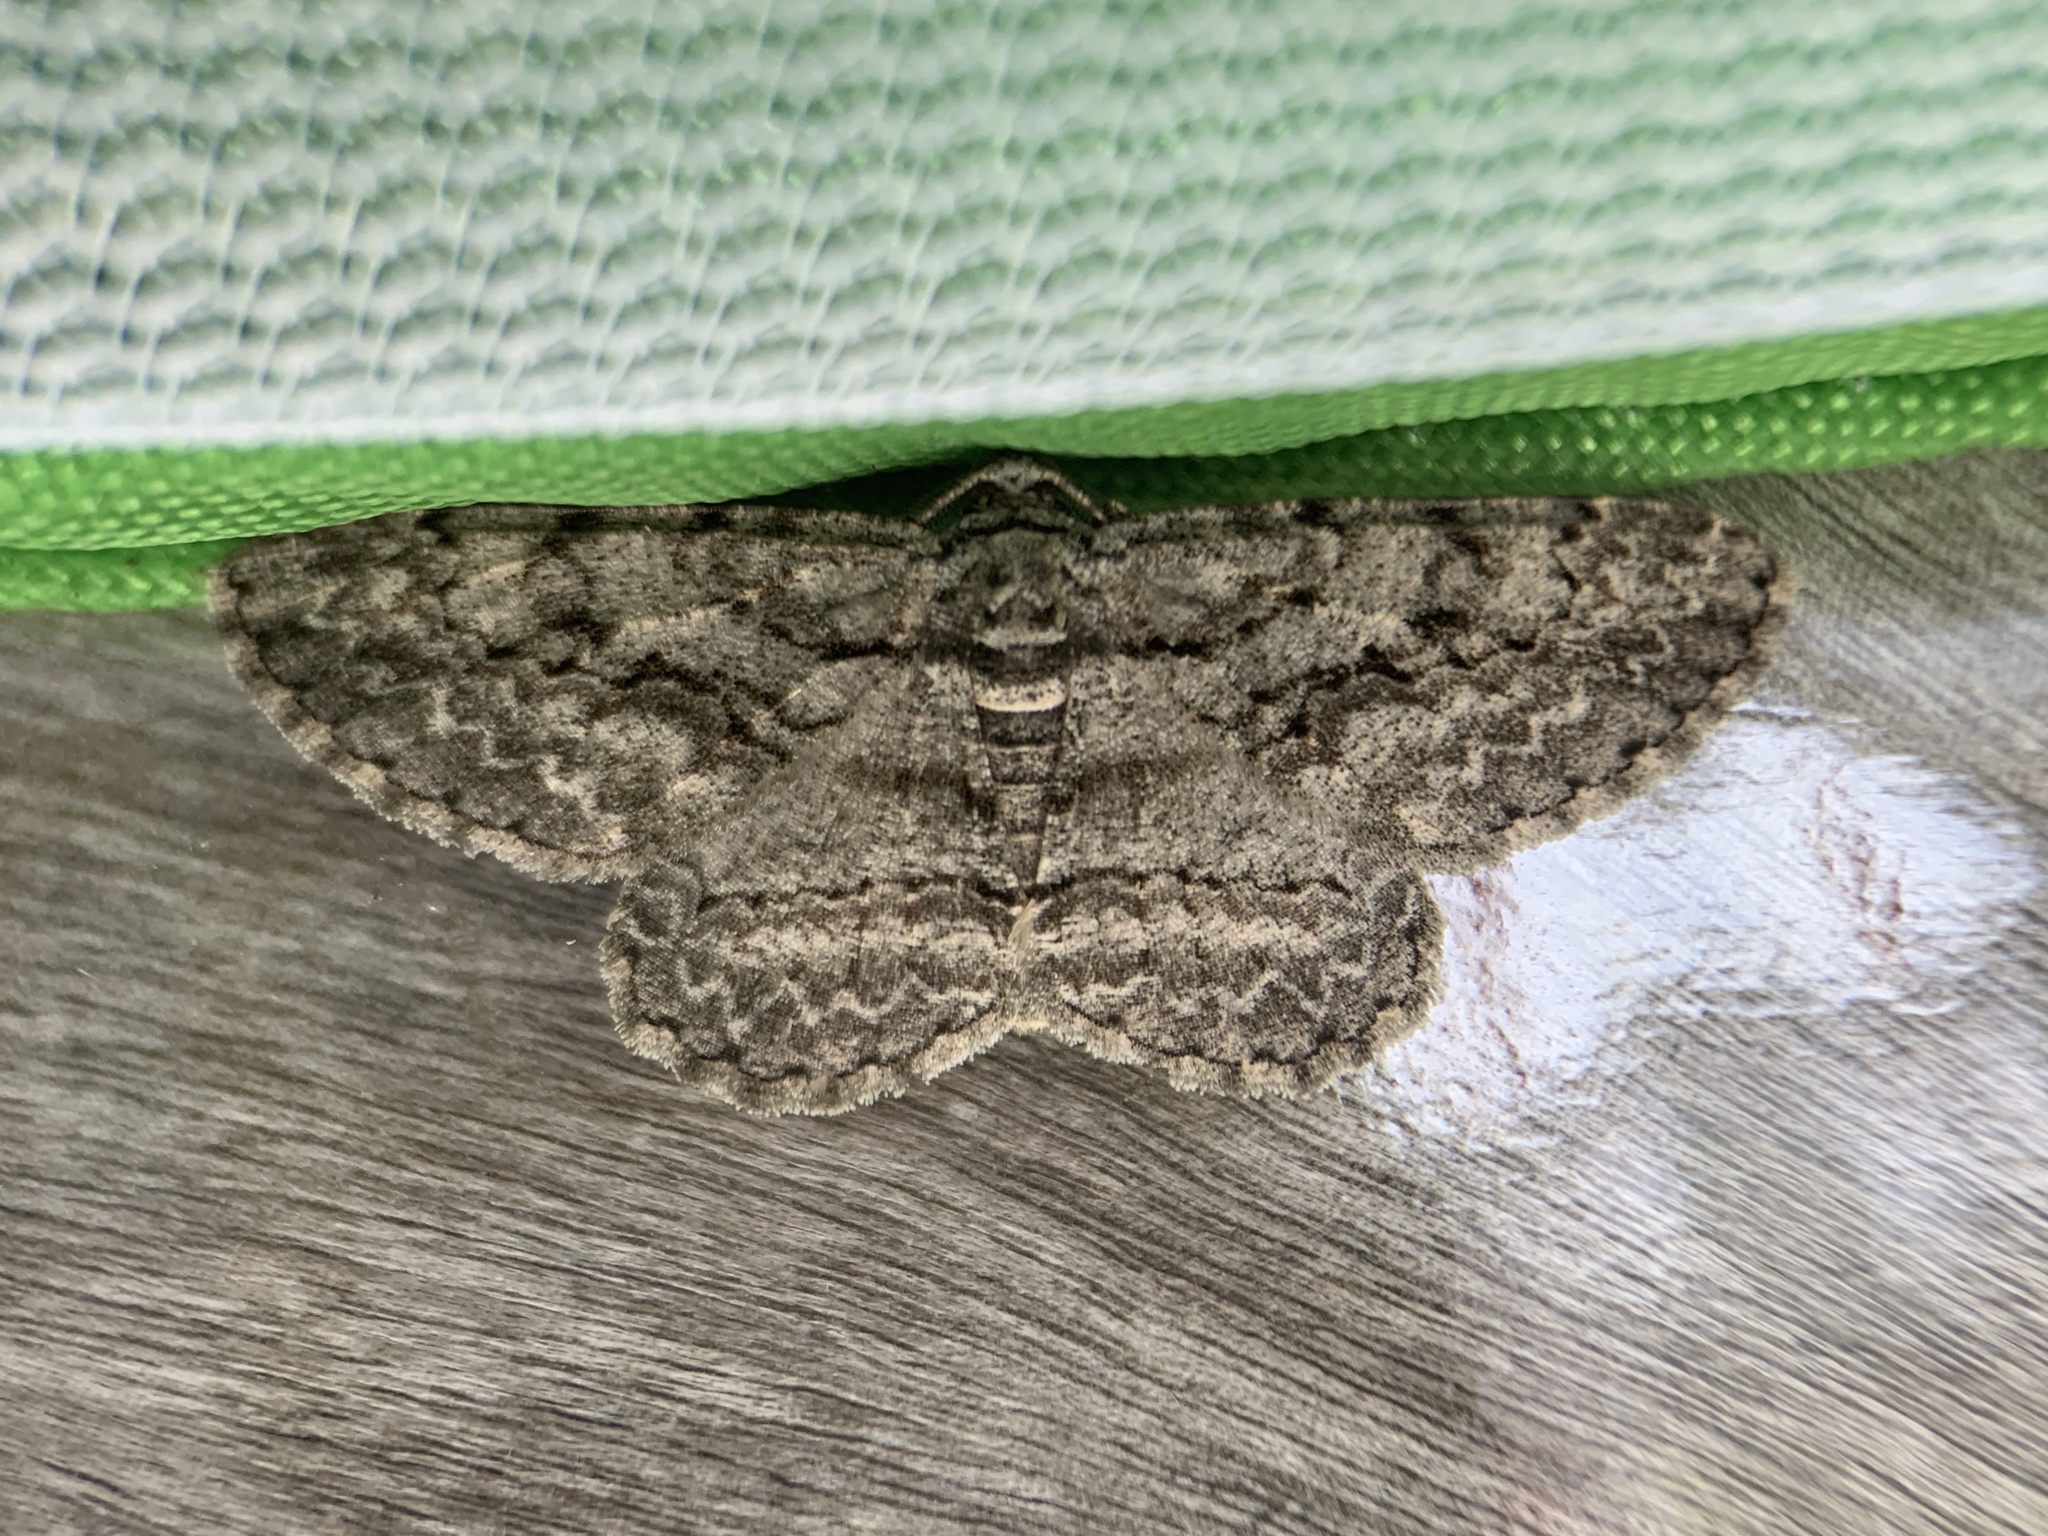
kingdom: Animalia
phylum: Arthropoda
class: Insecta
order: Lepidoptera
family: Geometridae
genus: Anavitrinella
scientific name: Anavitrinella pampinaria
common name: Common gray
